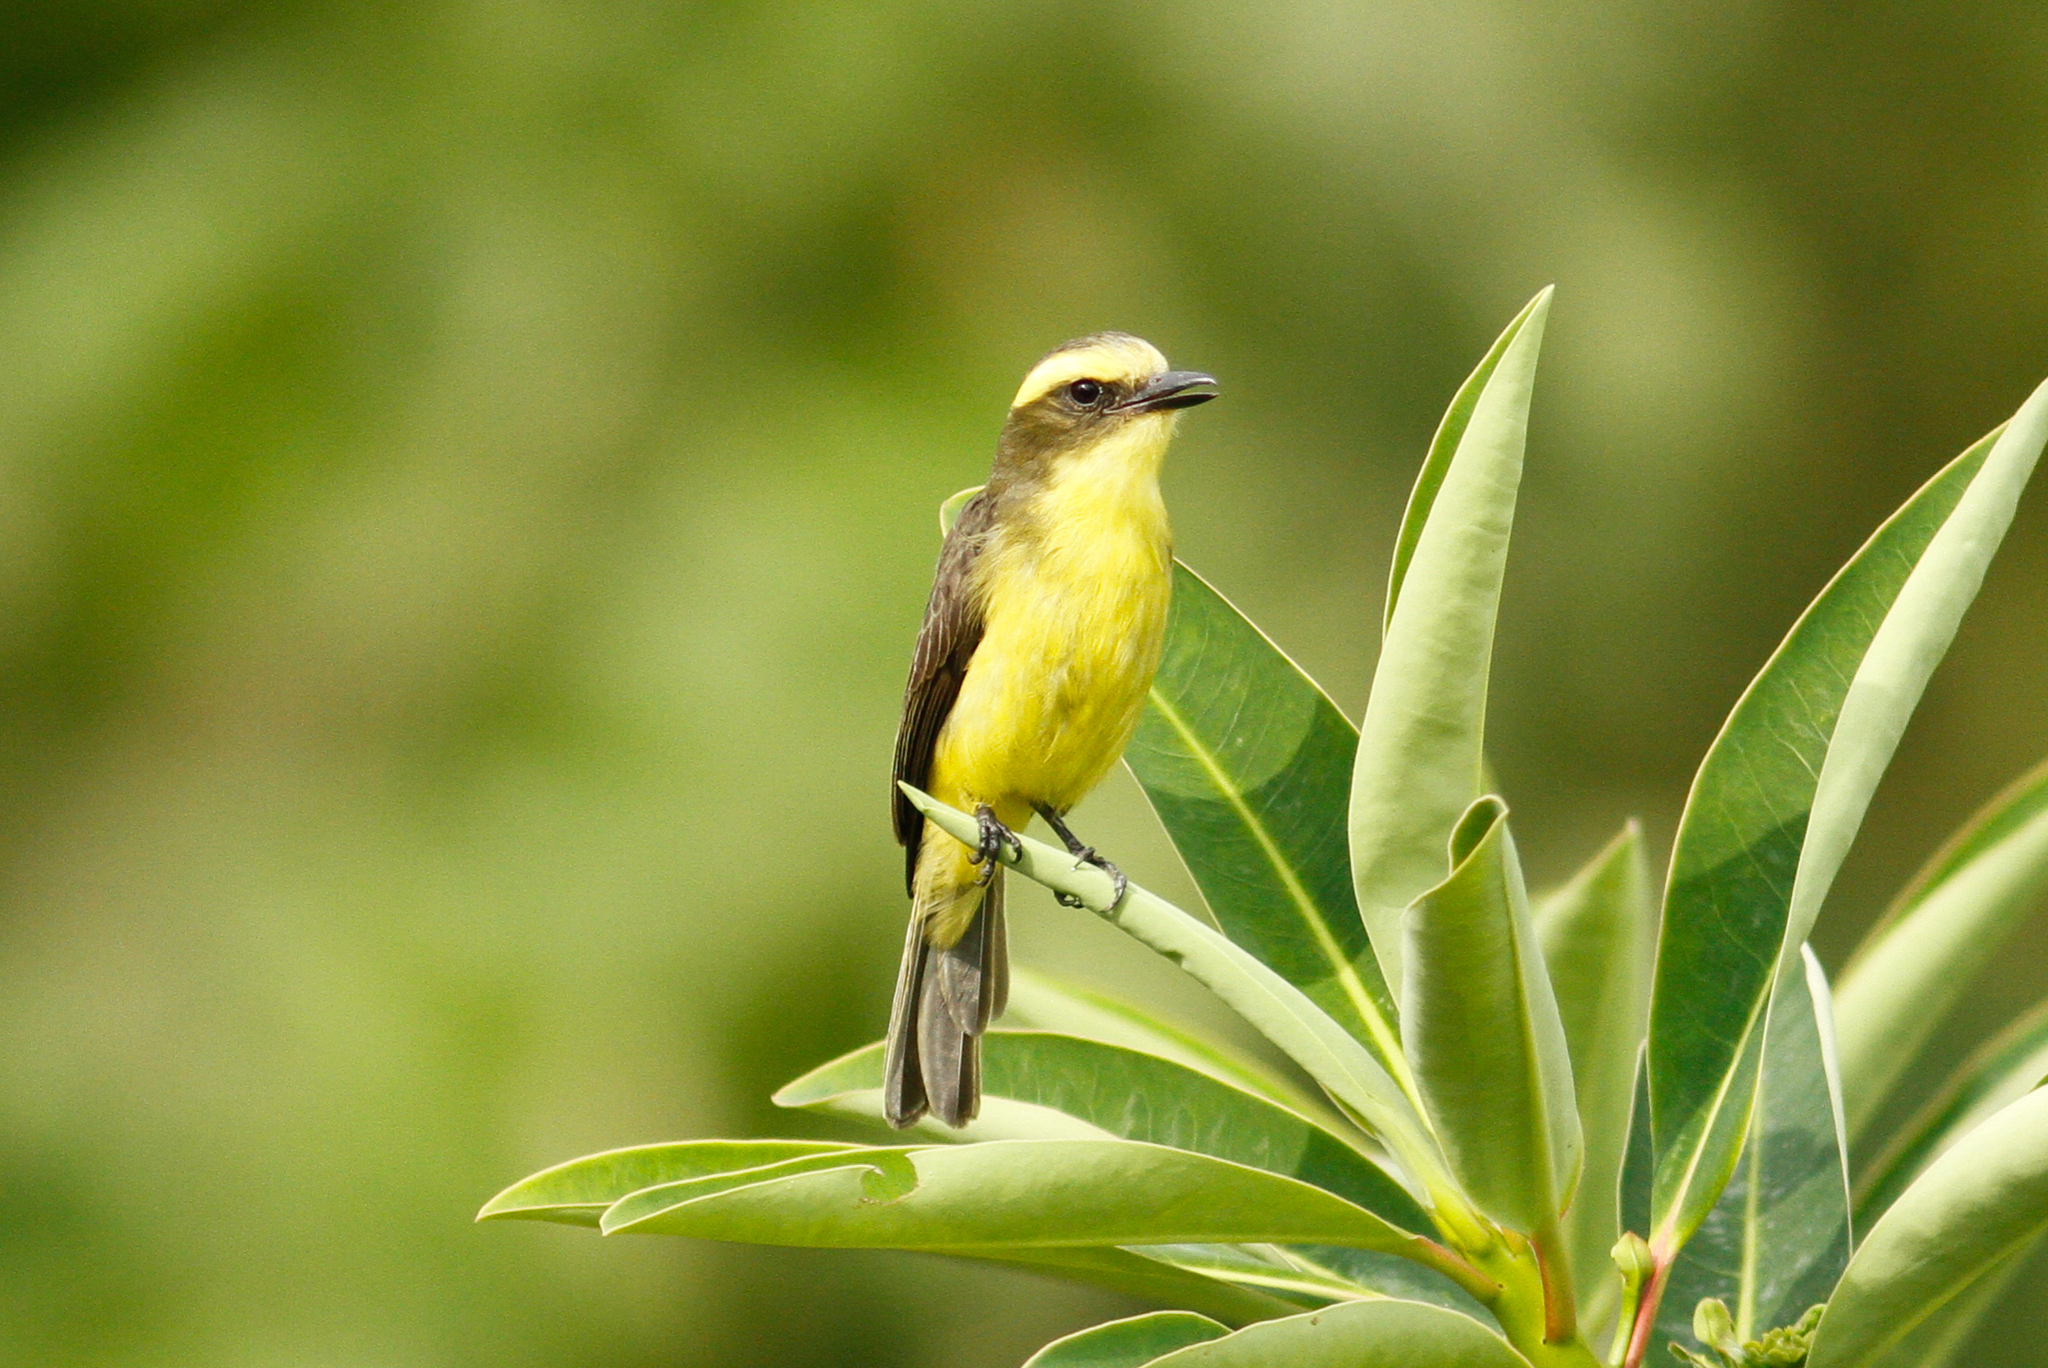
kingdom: Animalia
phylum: Chordata
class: Aves
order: Passeriformes
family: Tyrannidae
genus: Conopias
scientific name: Conopias cinchoneti
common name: Lemon-browed flycatcher
